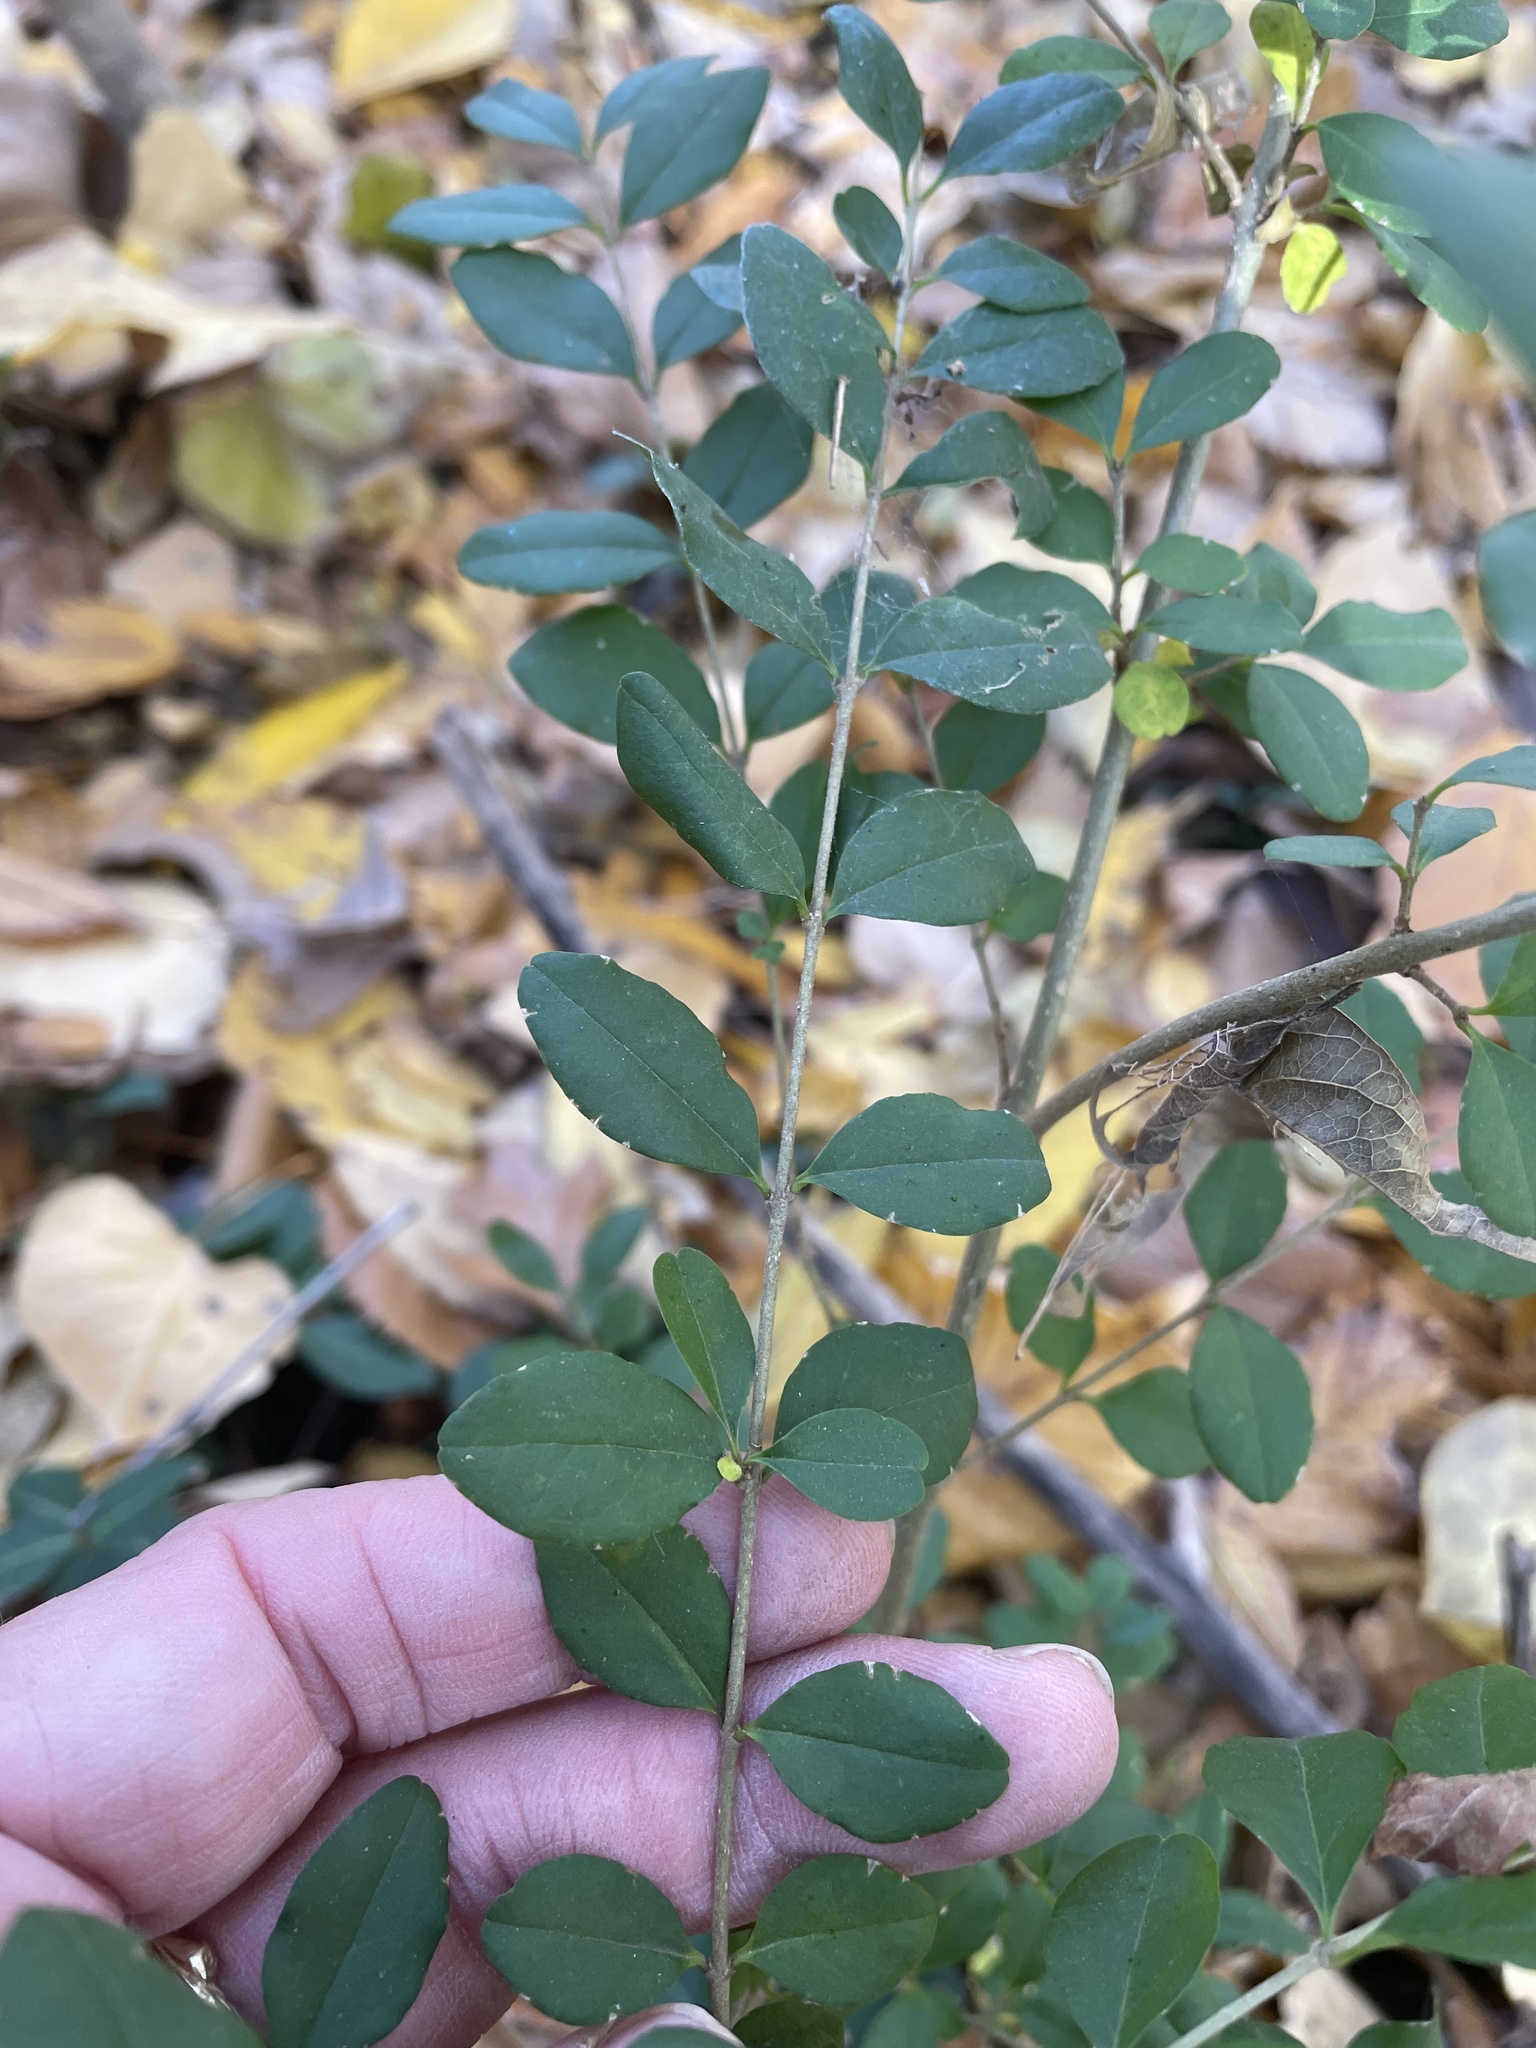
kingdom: Plantae
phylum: Tracheophyta
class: Magnoliopsida
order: Lamiales
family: Oleaceae
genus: Ligustrum
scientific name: Ligustrum sinense
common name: Chinese privet
